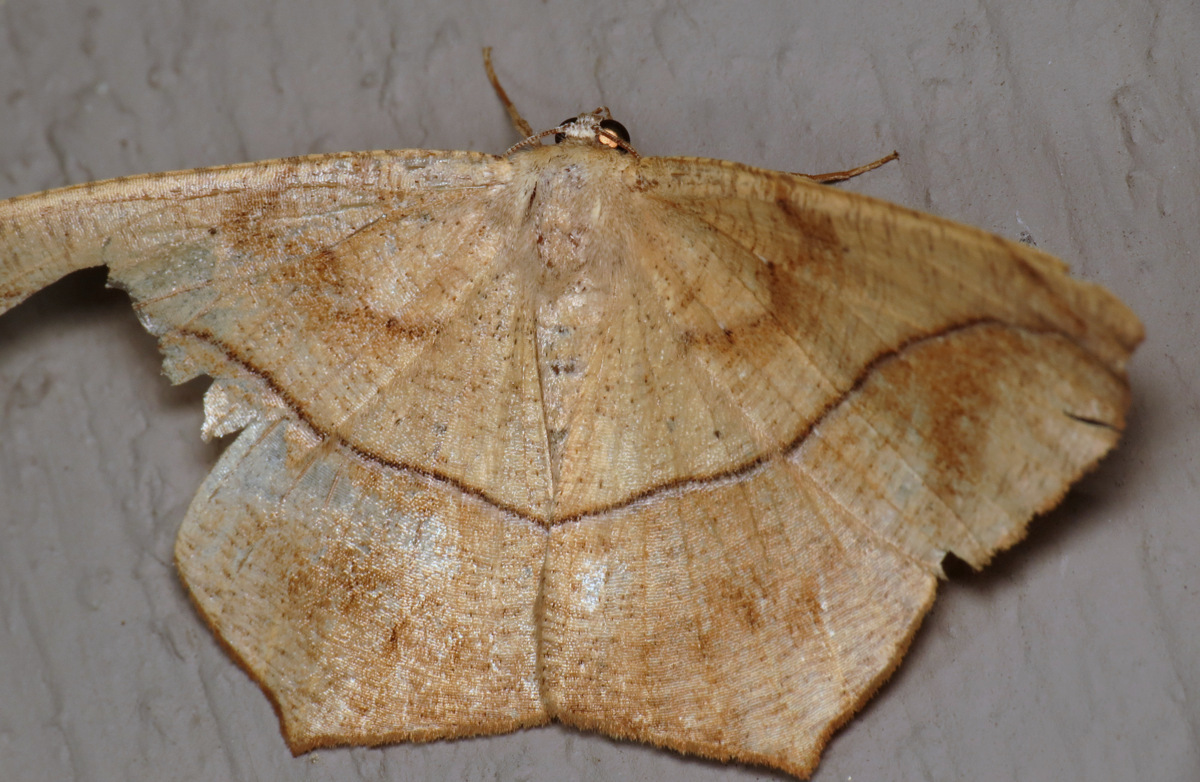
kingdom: Animalia
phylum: Arthropoda
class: Insecta
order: Lepidoptera
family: Geometridae
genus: Prochoerodes
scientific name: Prochoerodes lineola
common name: Large maple spanworm
